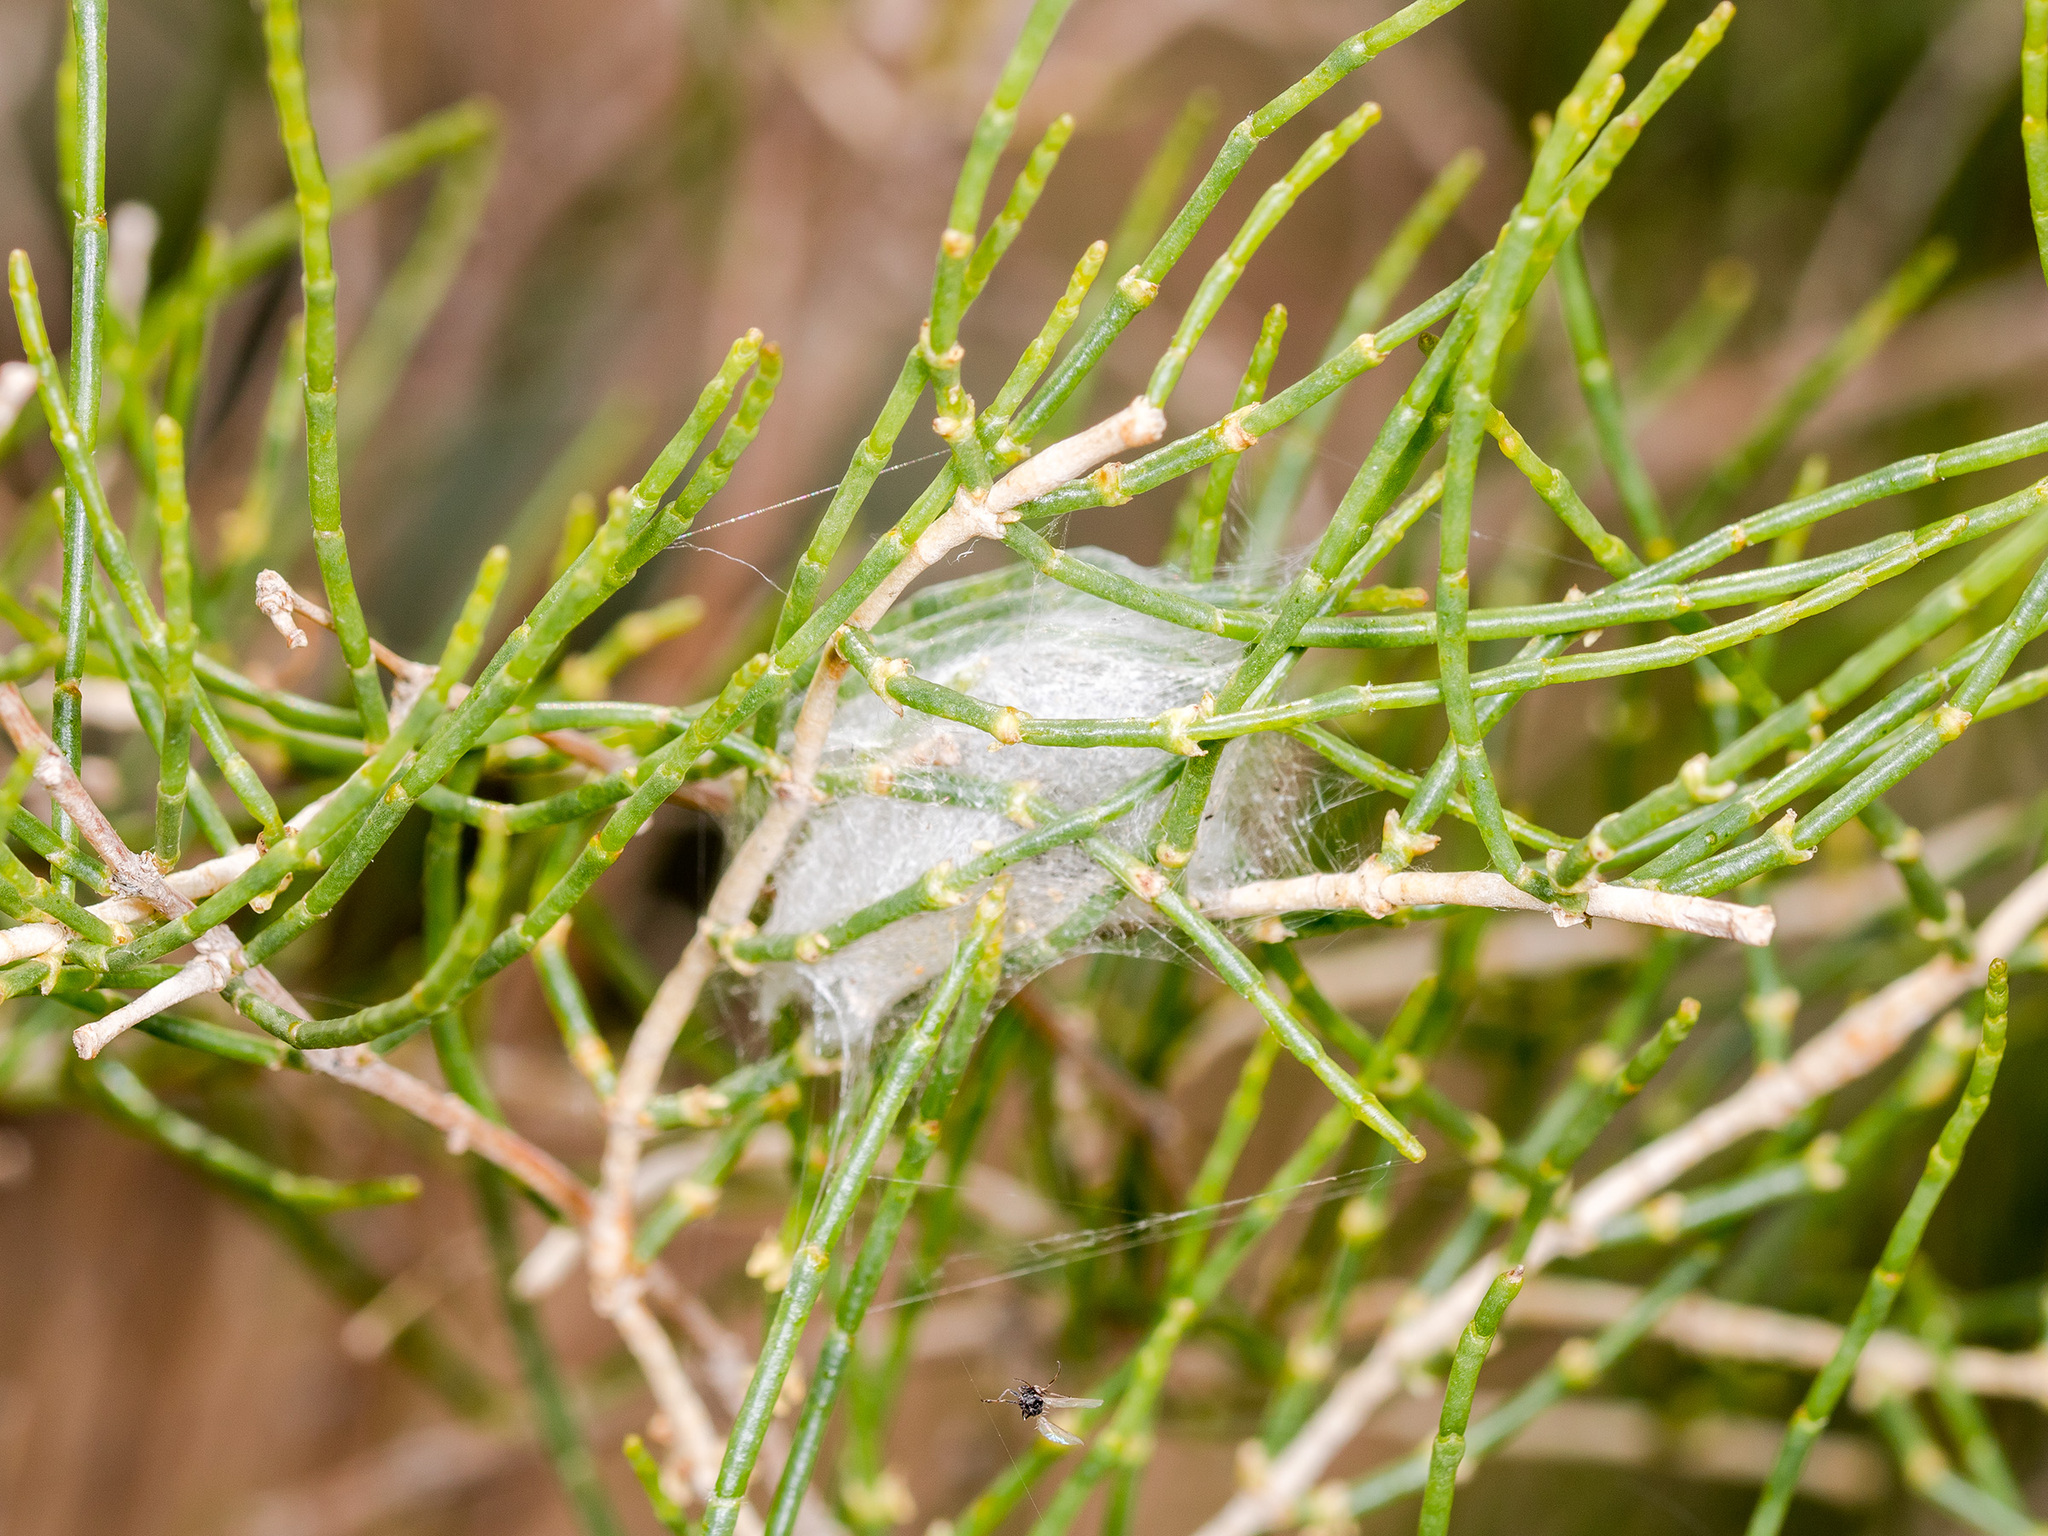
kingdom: Animalia
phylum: Arthropoda
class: Arachnida
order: Araneae
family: Salticidae
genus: Mogrus
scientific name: Mogrus antoninus
